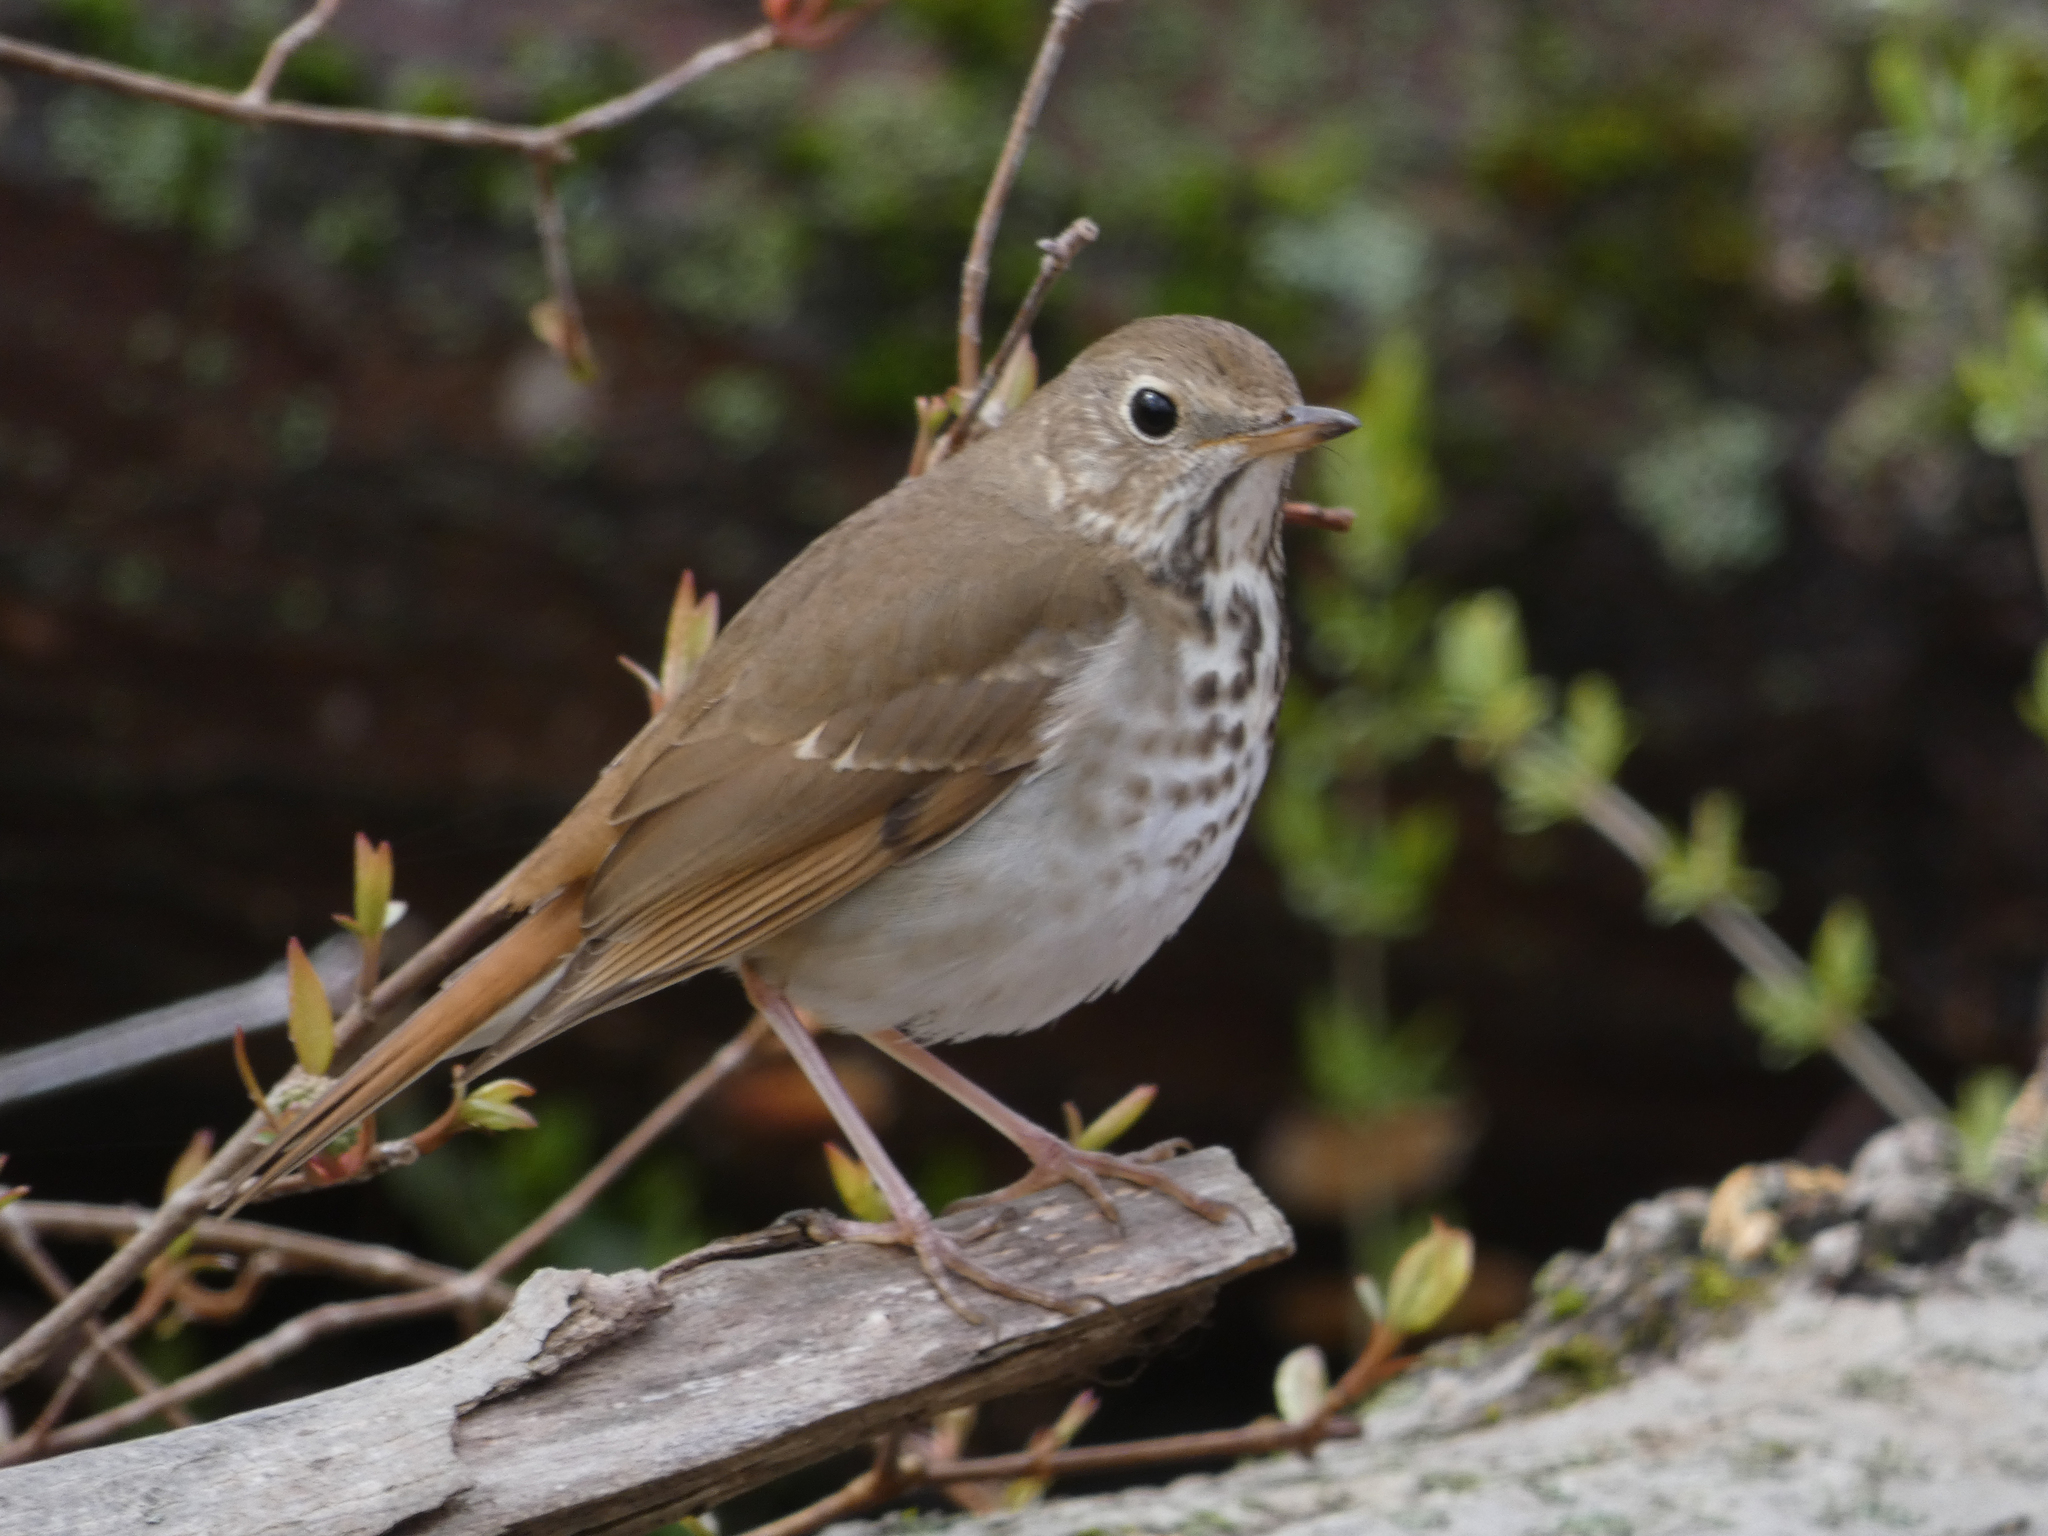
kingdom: Animalia
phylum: Chordata
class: Aves
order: Passeriformes
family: Turdidae
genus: Catharus
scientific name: Catharus guttatus
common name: Hermit thrush
